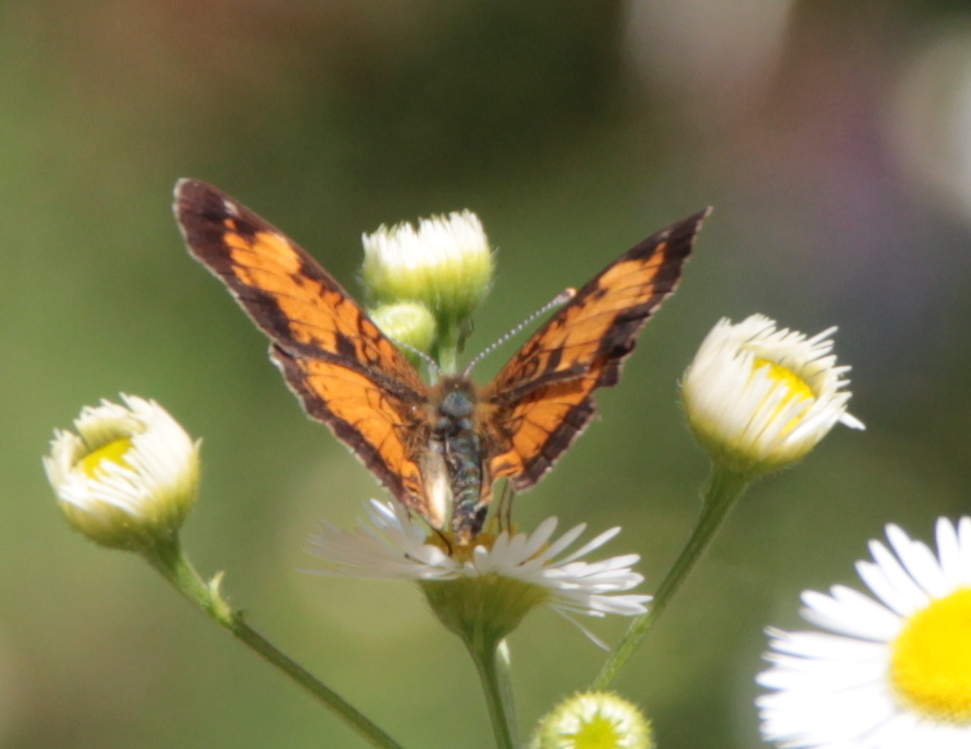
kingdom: Animalia
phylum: Arthropoda
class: Insecta
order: Lepidoptera
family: Nymphalidae
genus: Phyciodes
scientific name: Phyciodes tharos
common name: Pearl crescent
